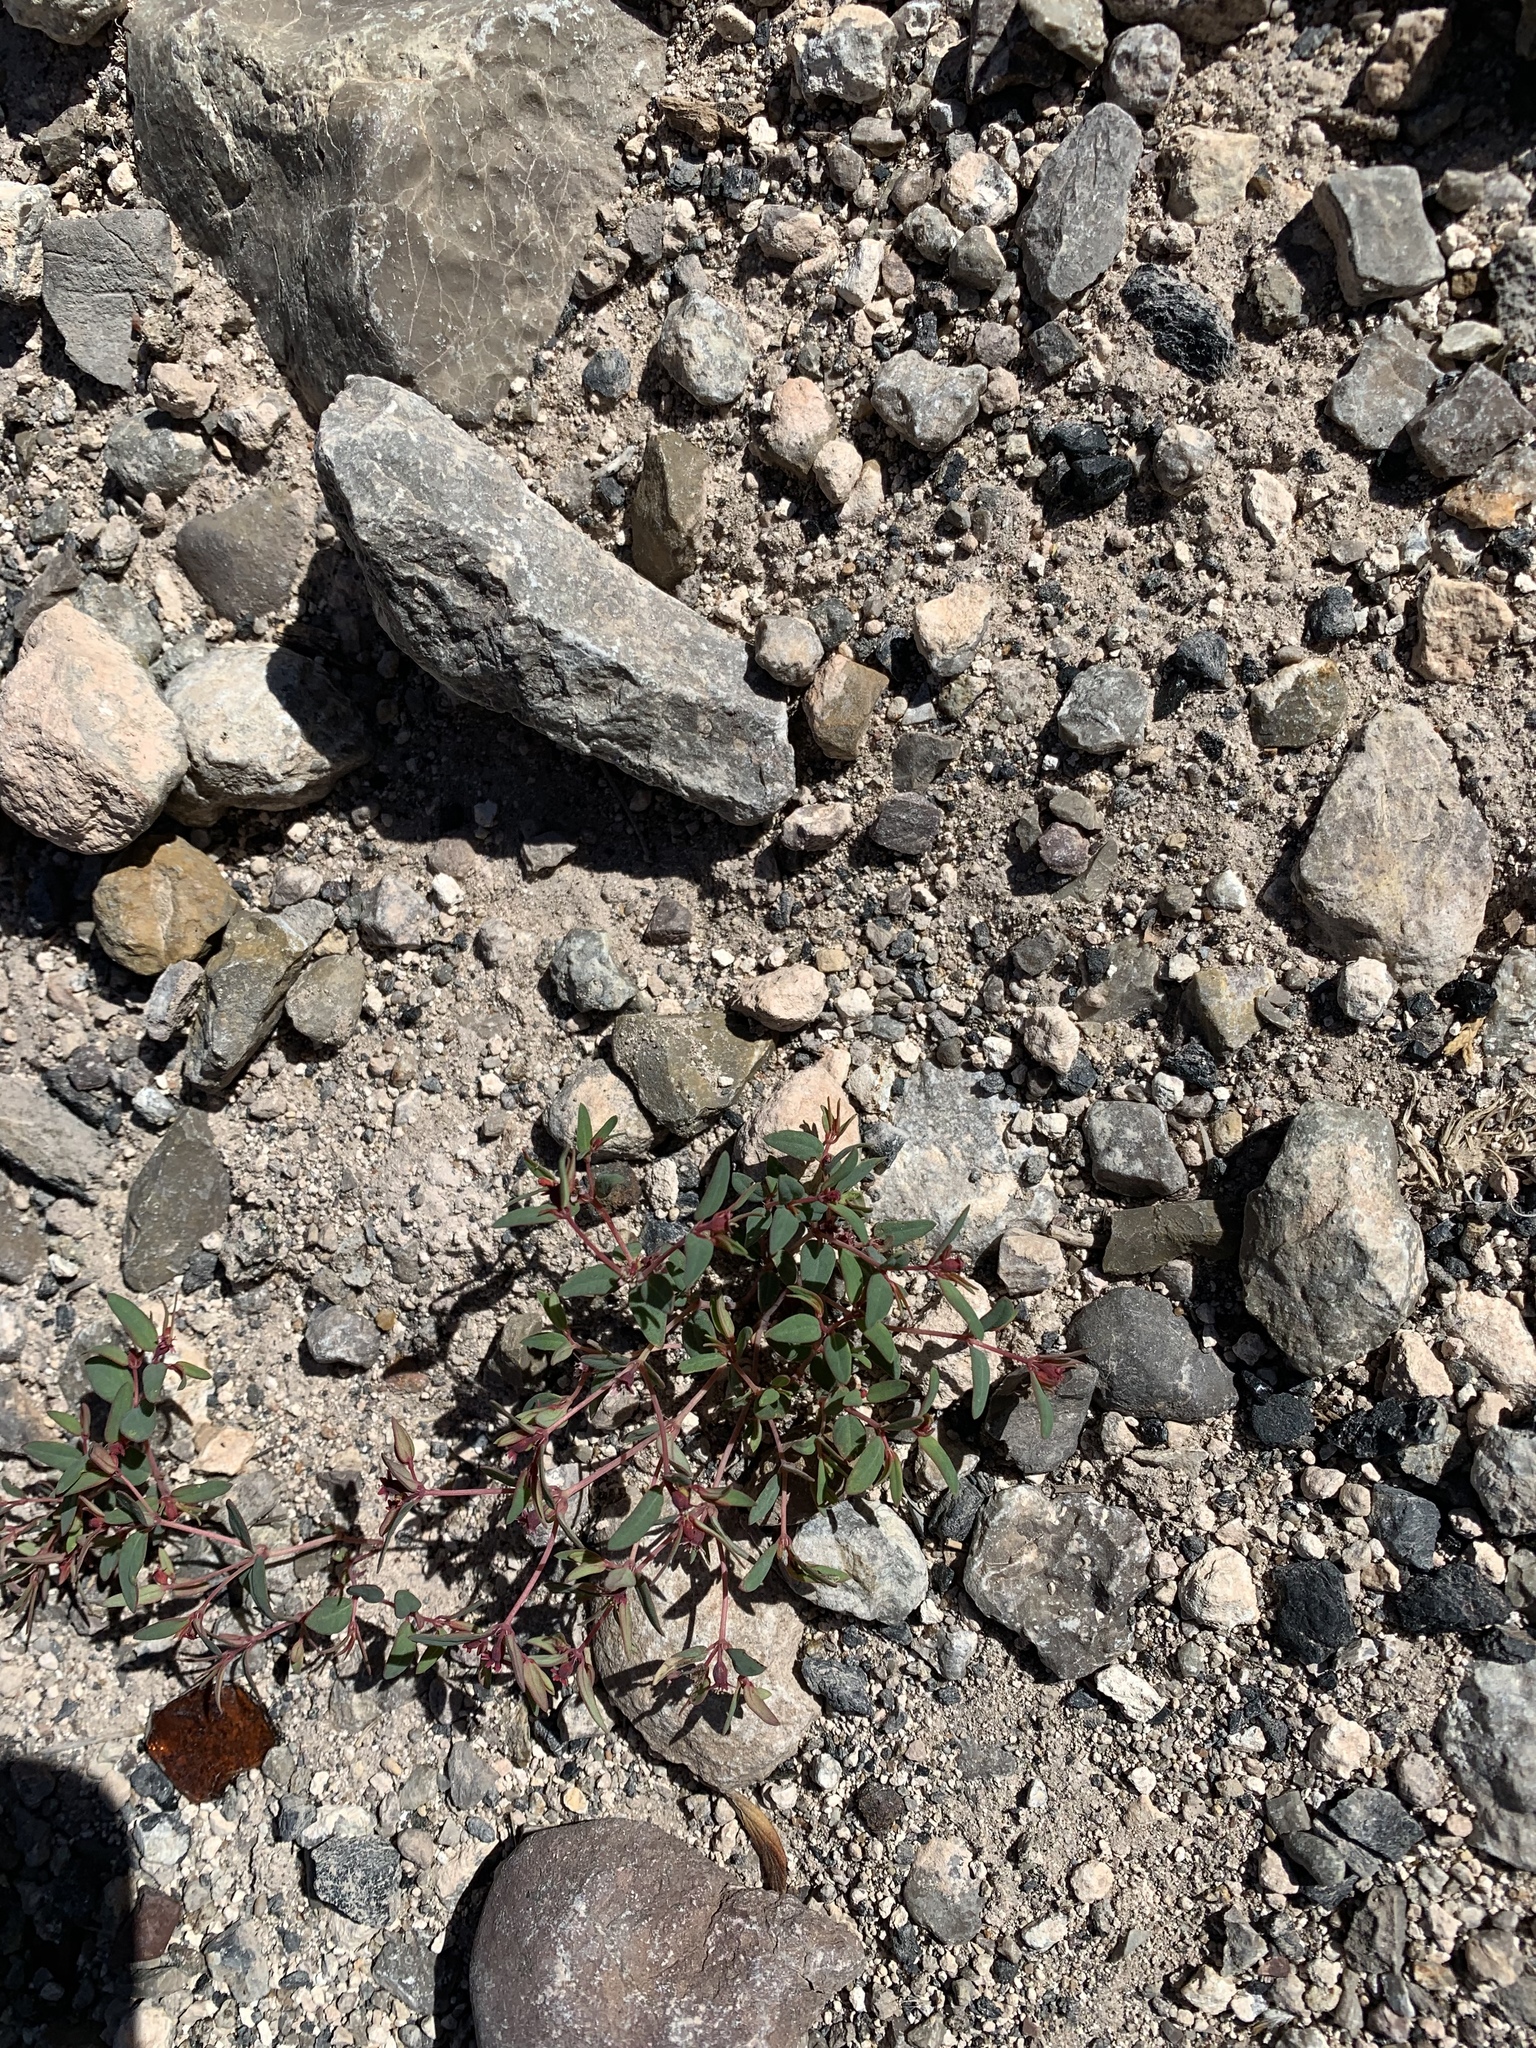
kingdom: Plantae
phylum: Tracheophyta
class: Magnoliopsida
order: Malpighiales
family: Euphorbiaceae
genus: Euphorbia
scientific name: Euphorbia chaetocalyx
